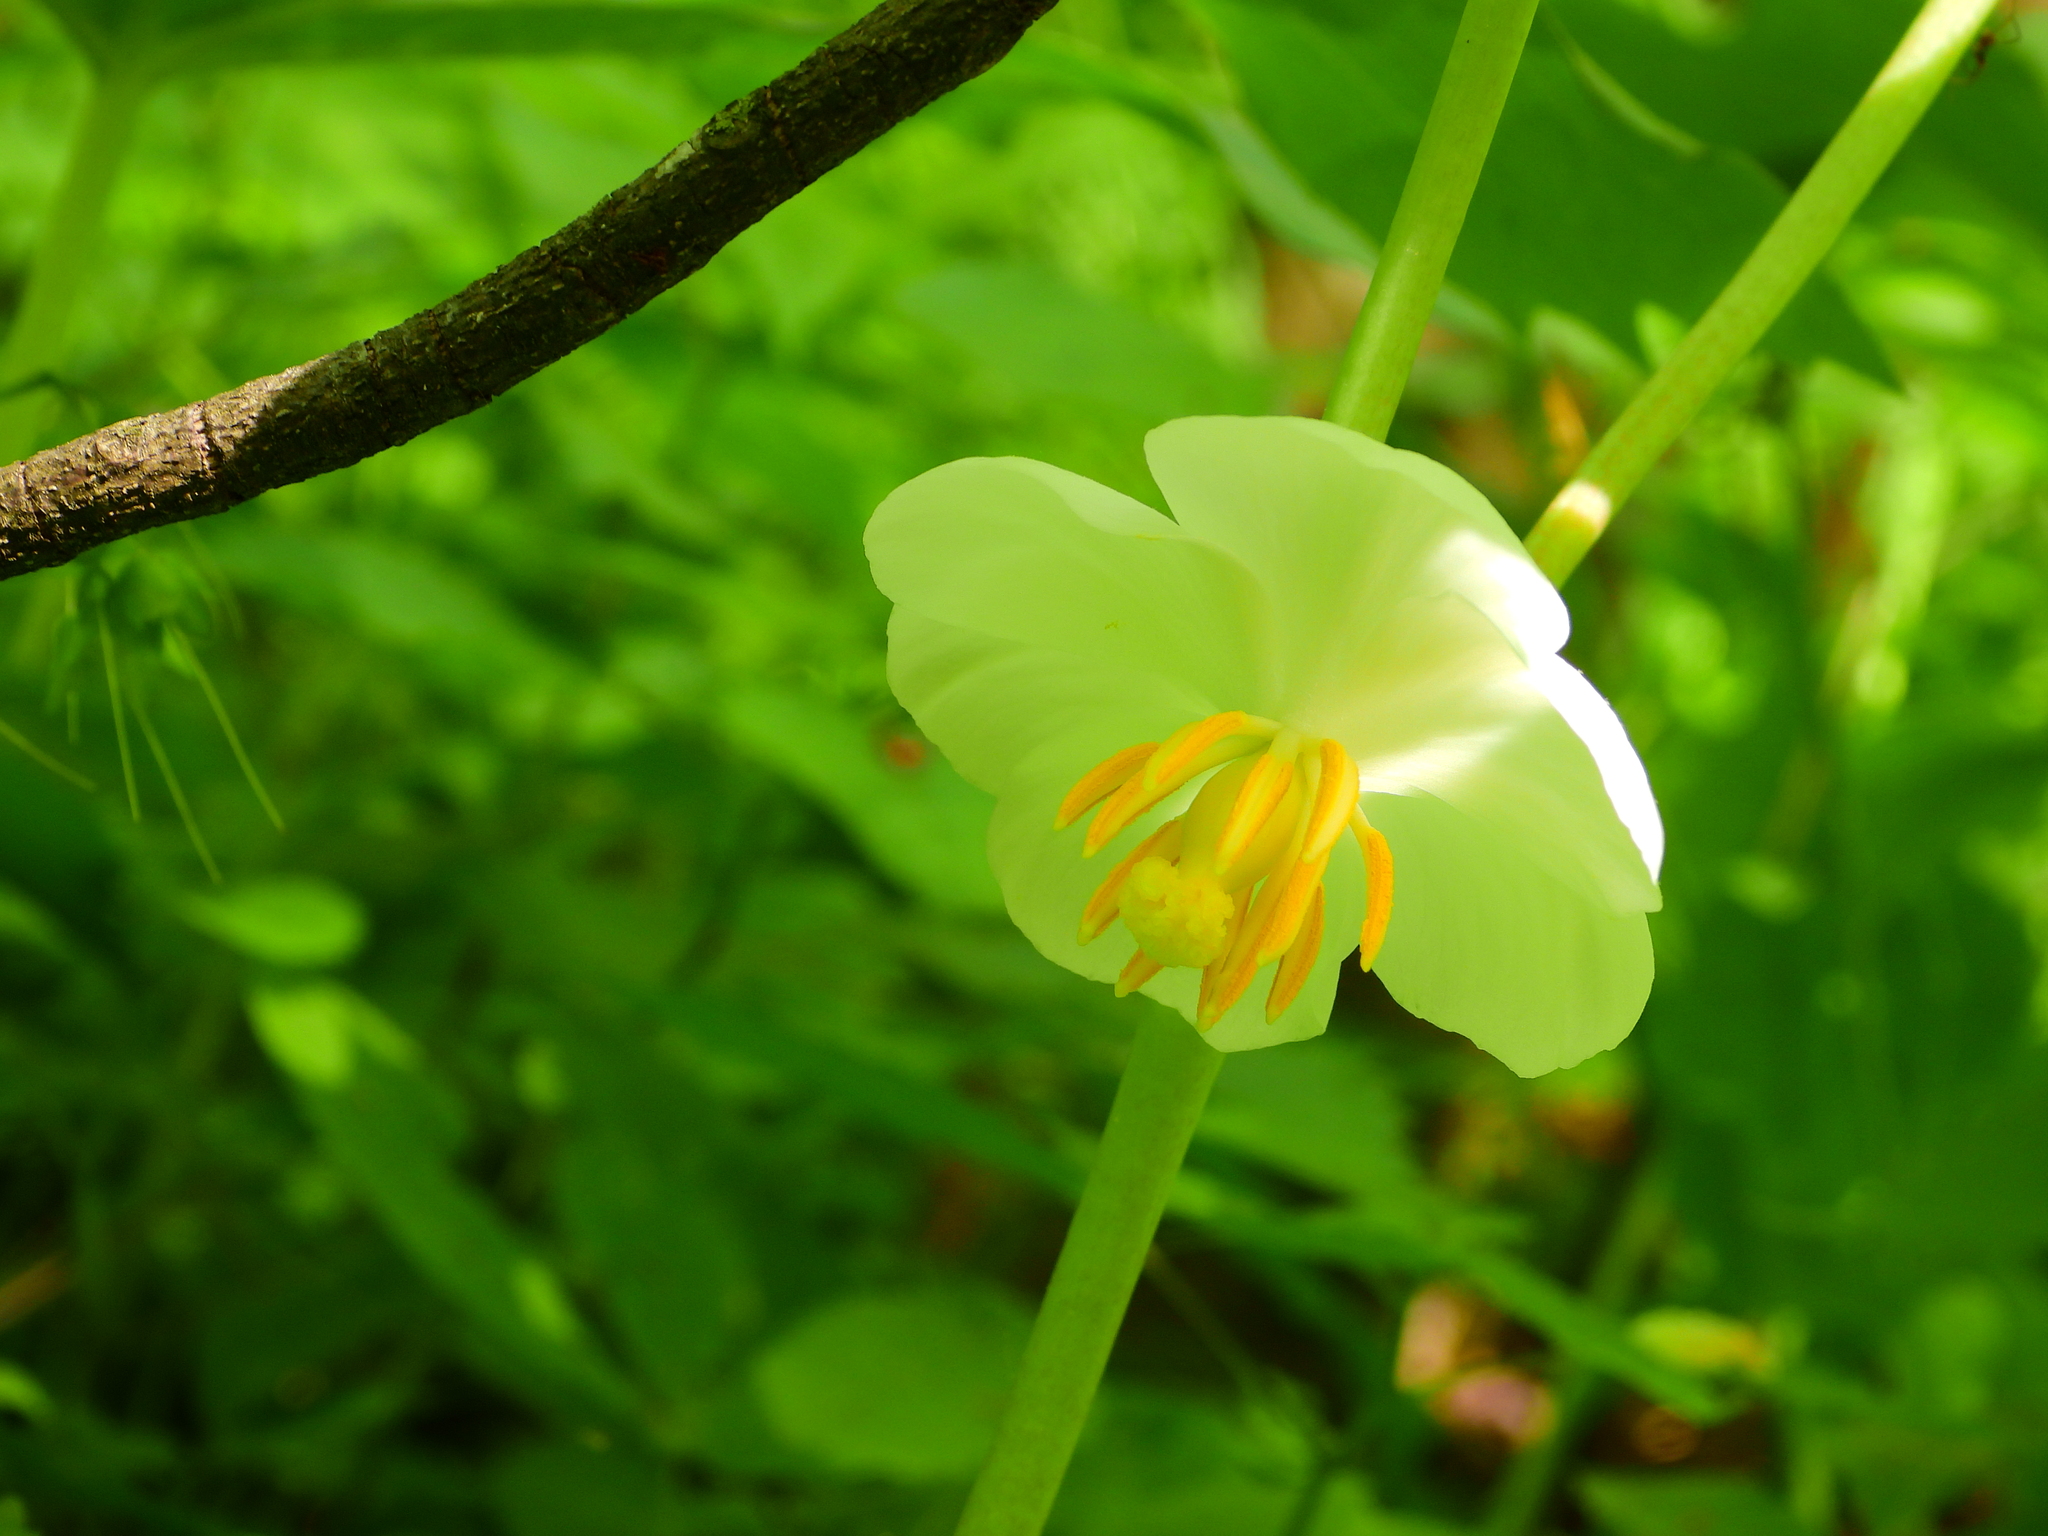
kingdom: Plantae
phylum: Tracheophyta
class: Magnoliopsida
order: Ranunculales
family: Berberidaceae
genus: Podophyllum
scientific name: Podophyllum peltatum
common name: Wild mandrake
